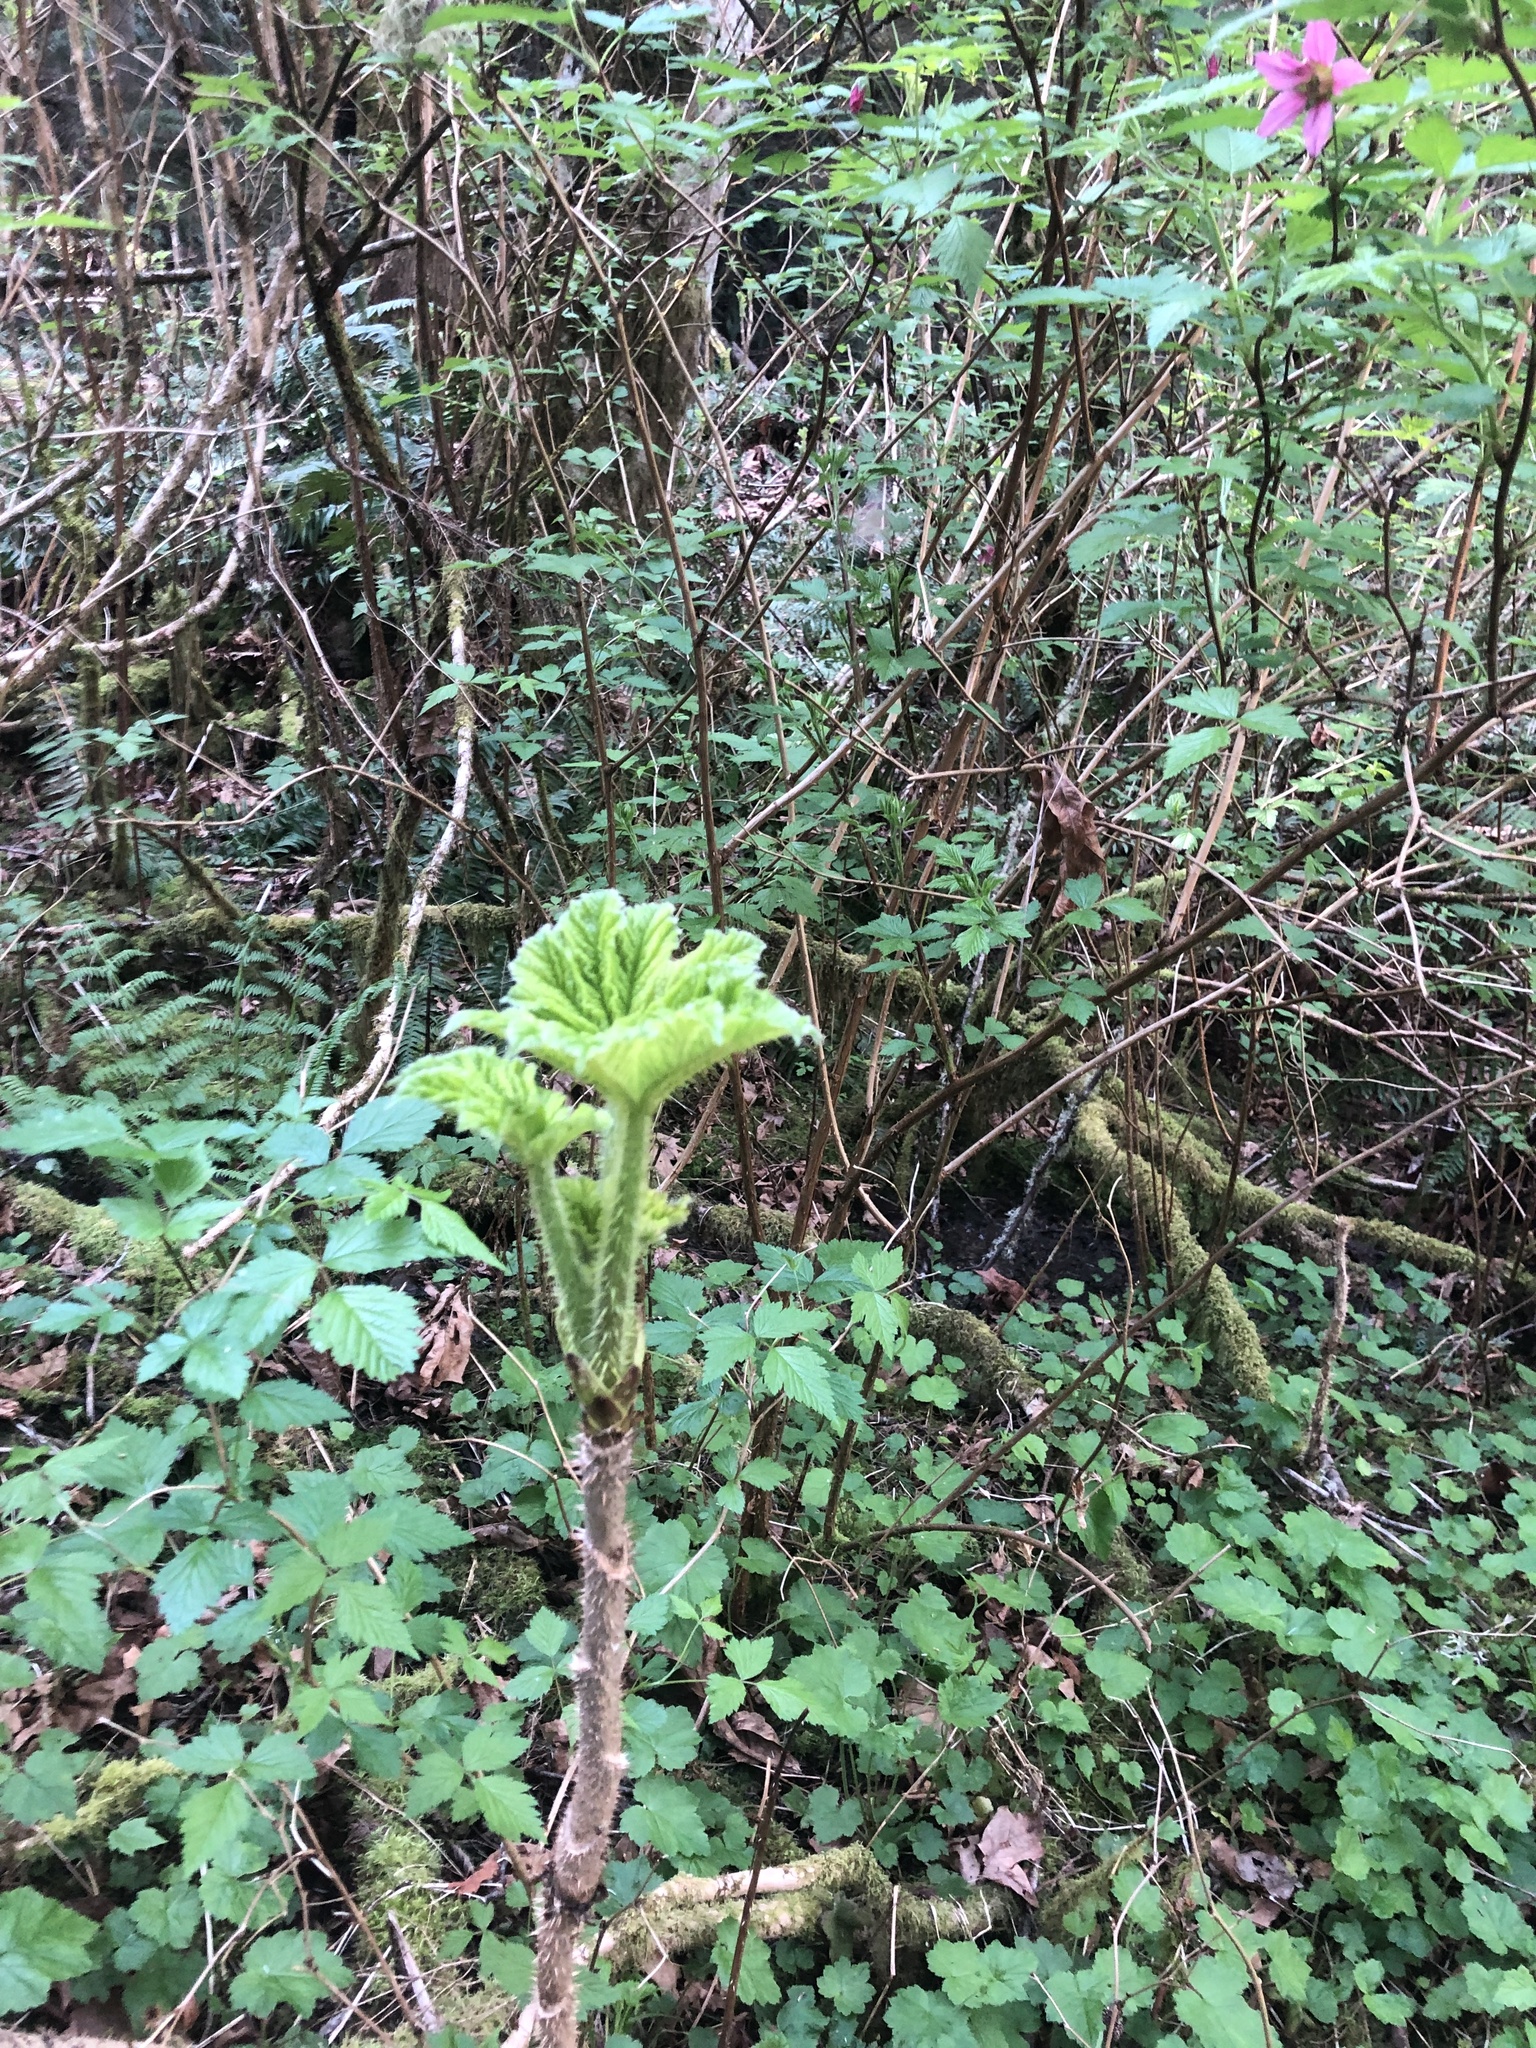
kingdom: Plantae
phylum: Tracheophyta
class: Magnoliopsida
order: Apiales
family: Araliaceae
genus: Oplopanax
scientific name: Oplopanax horridus
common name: Devil's walking-stick
